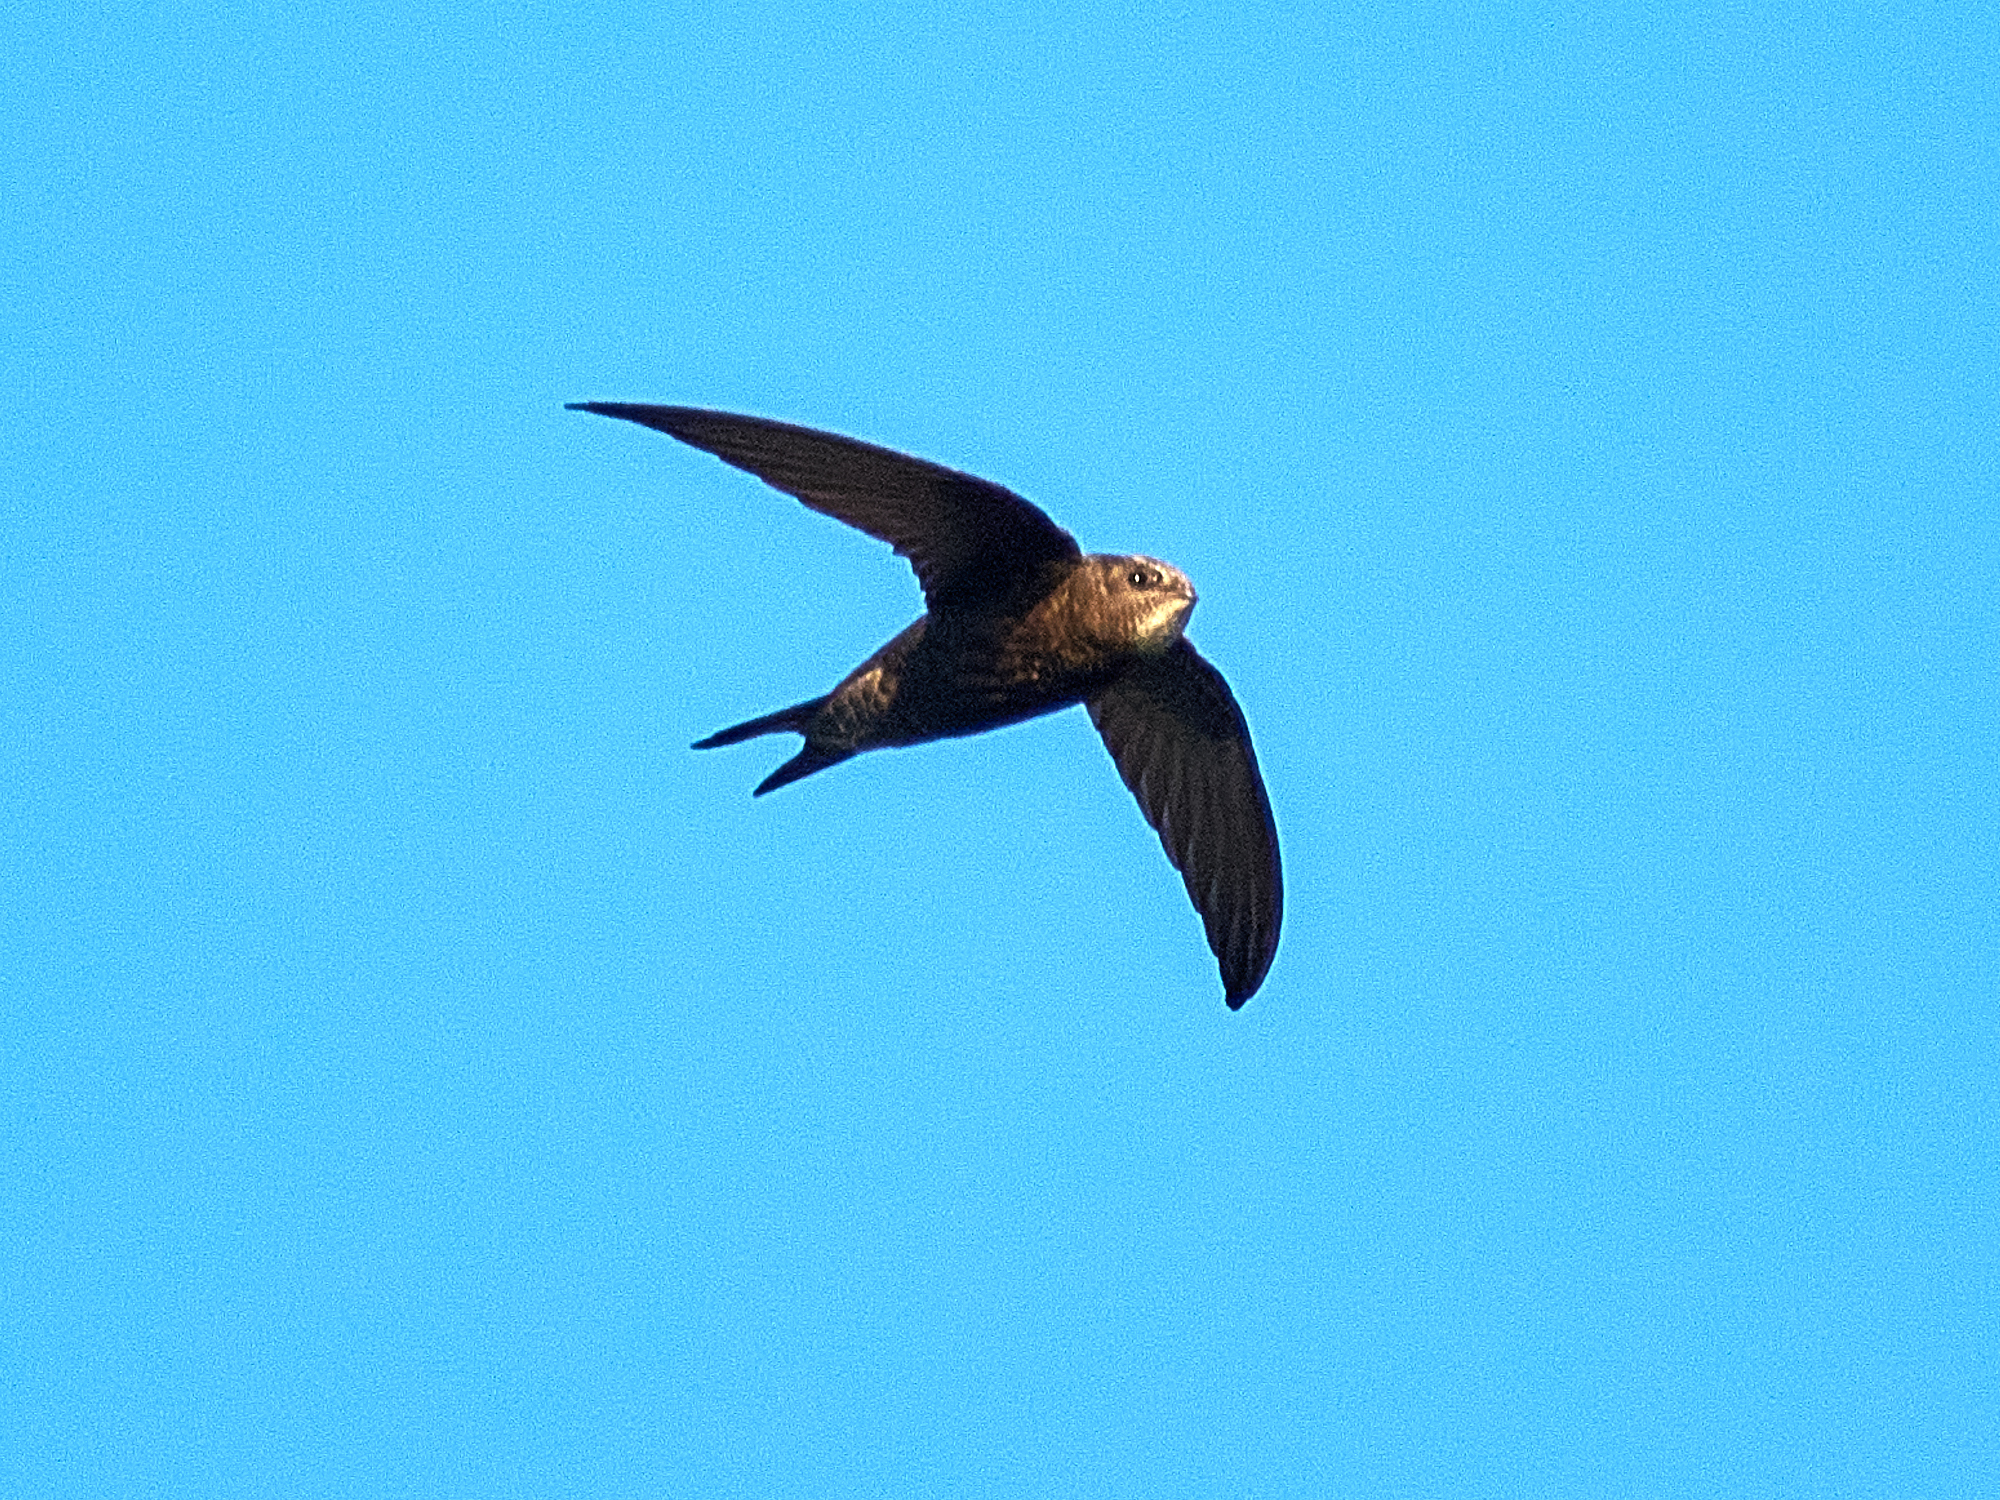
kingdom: Animalia
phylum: Chordata
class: Aves
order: Apodiformes
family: Apodidae
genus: Apus
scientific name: Apus apus
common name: Common swift
